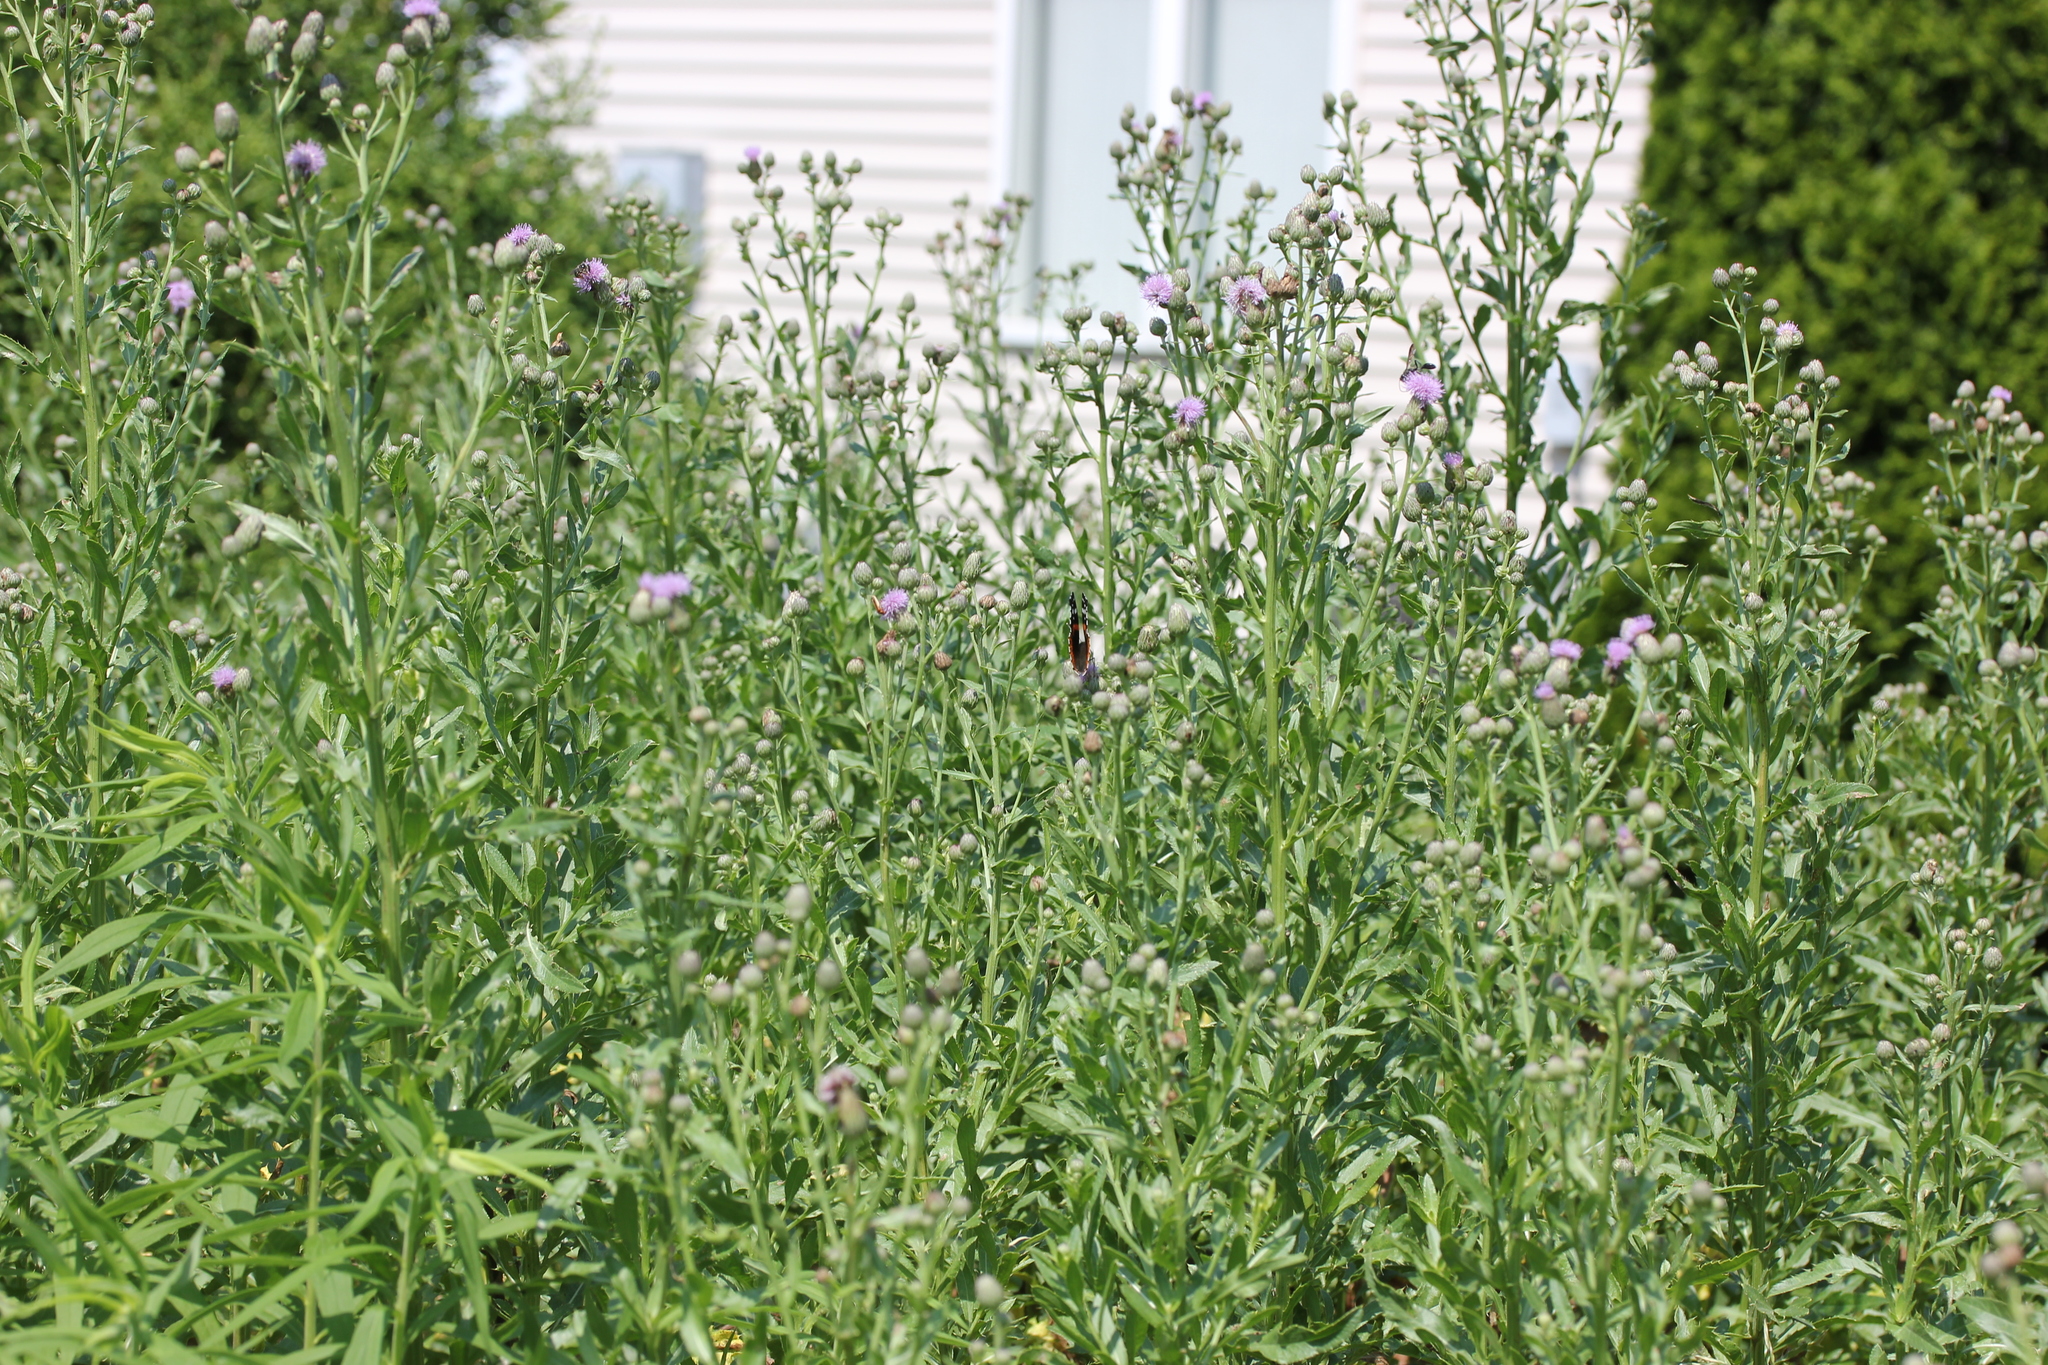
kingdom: Plantae
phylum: Tracheophyta
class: Magnoliopsida
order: Asterales
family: Asteraceae
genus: Cirsium
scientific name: Cirsium arvense
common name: Creeping thistle
